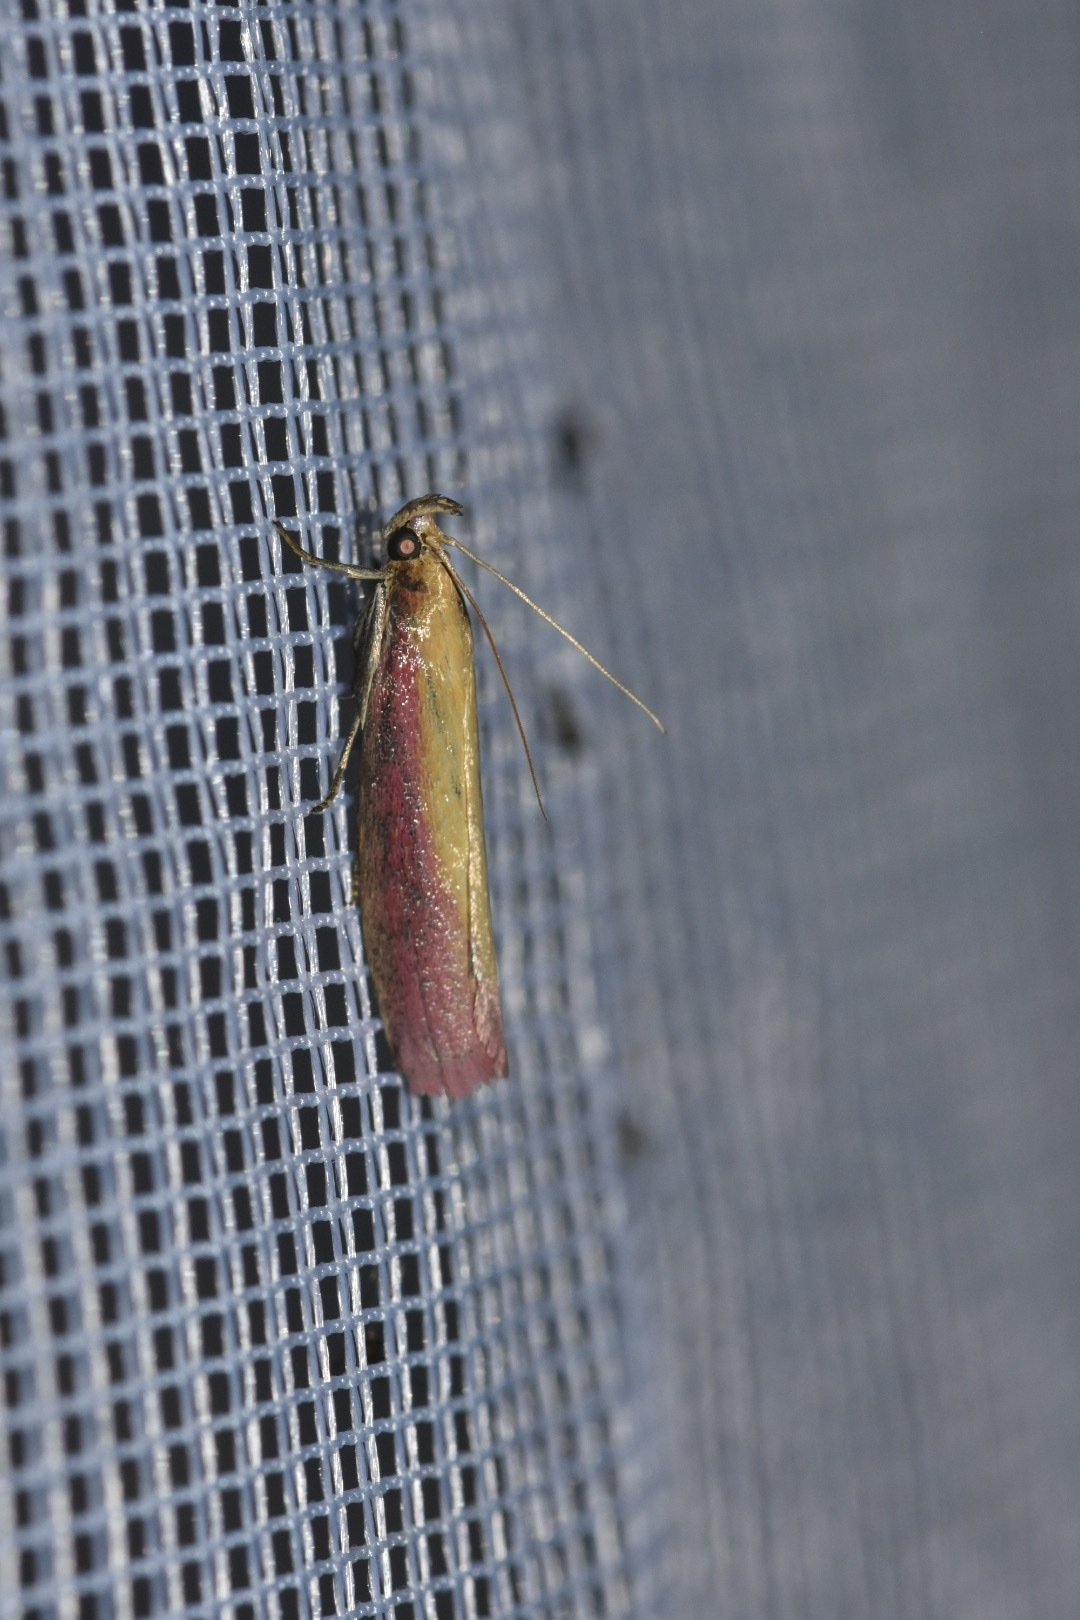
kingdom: Animalia
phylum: Arthropoda
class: Insecta
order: Lepidoptera
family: Pyralidae
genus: Oncocera
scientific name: Oncocera semirubella
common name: Rosy-striped knot-horn
